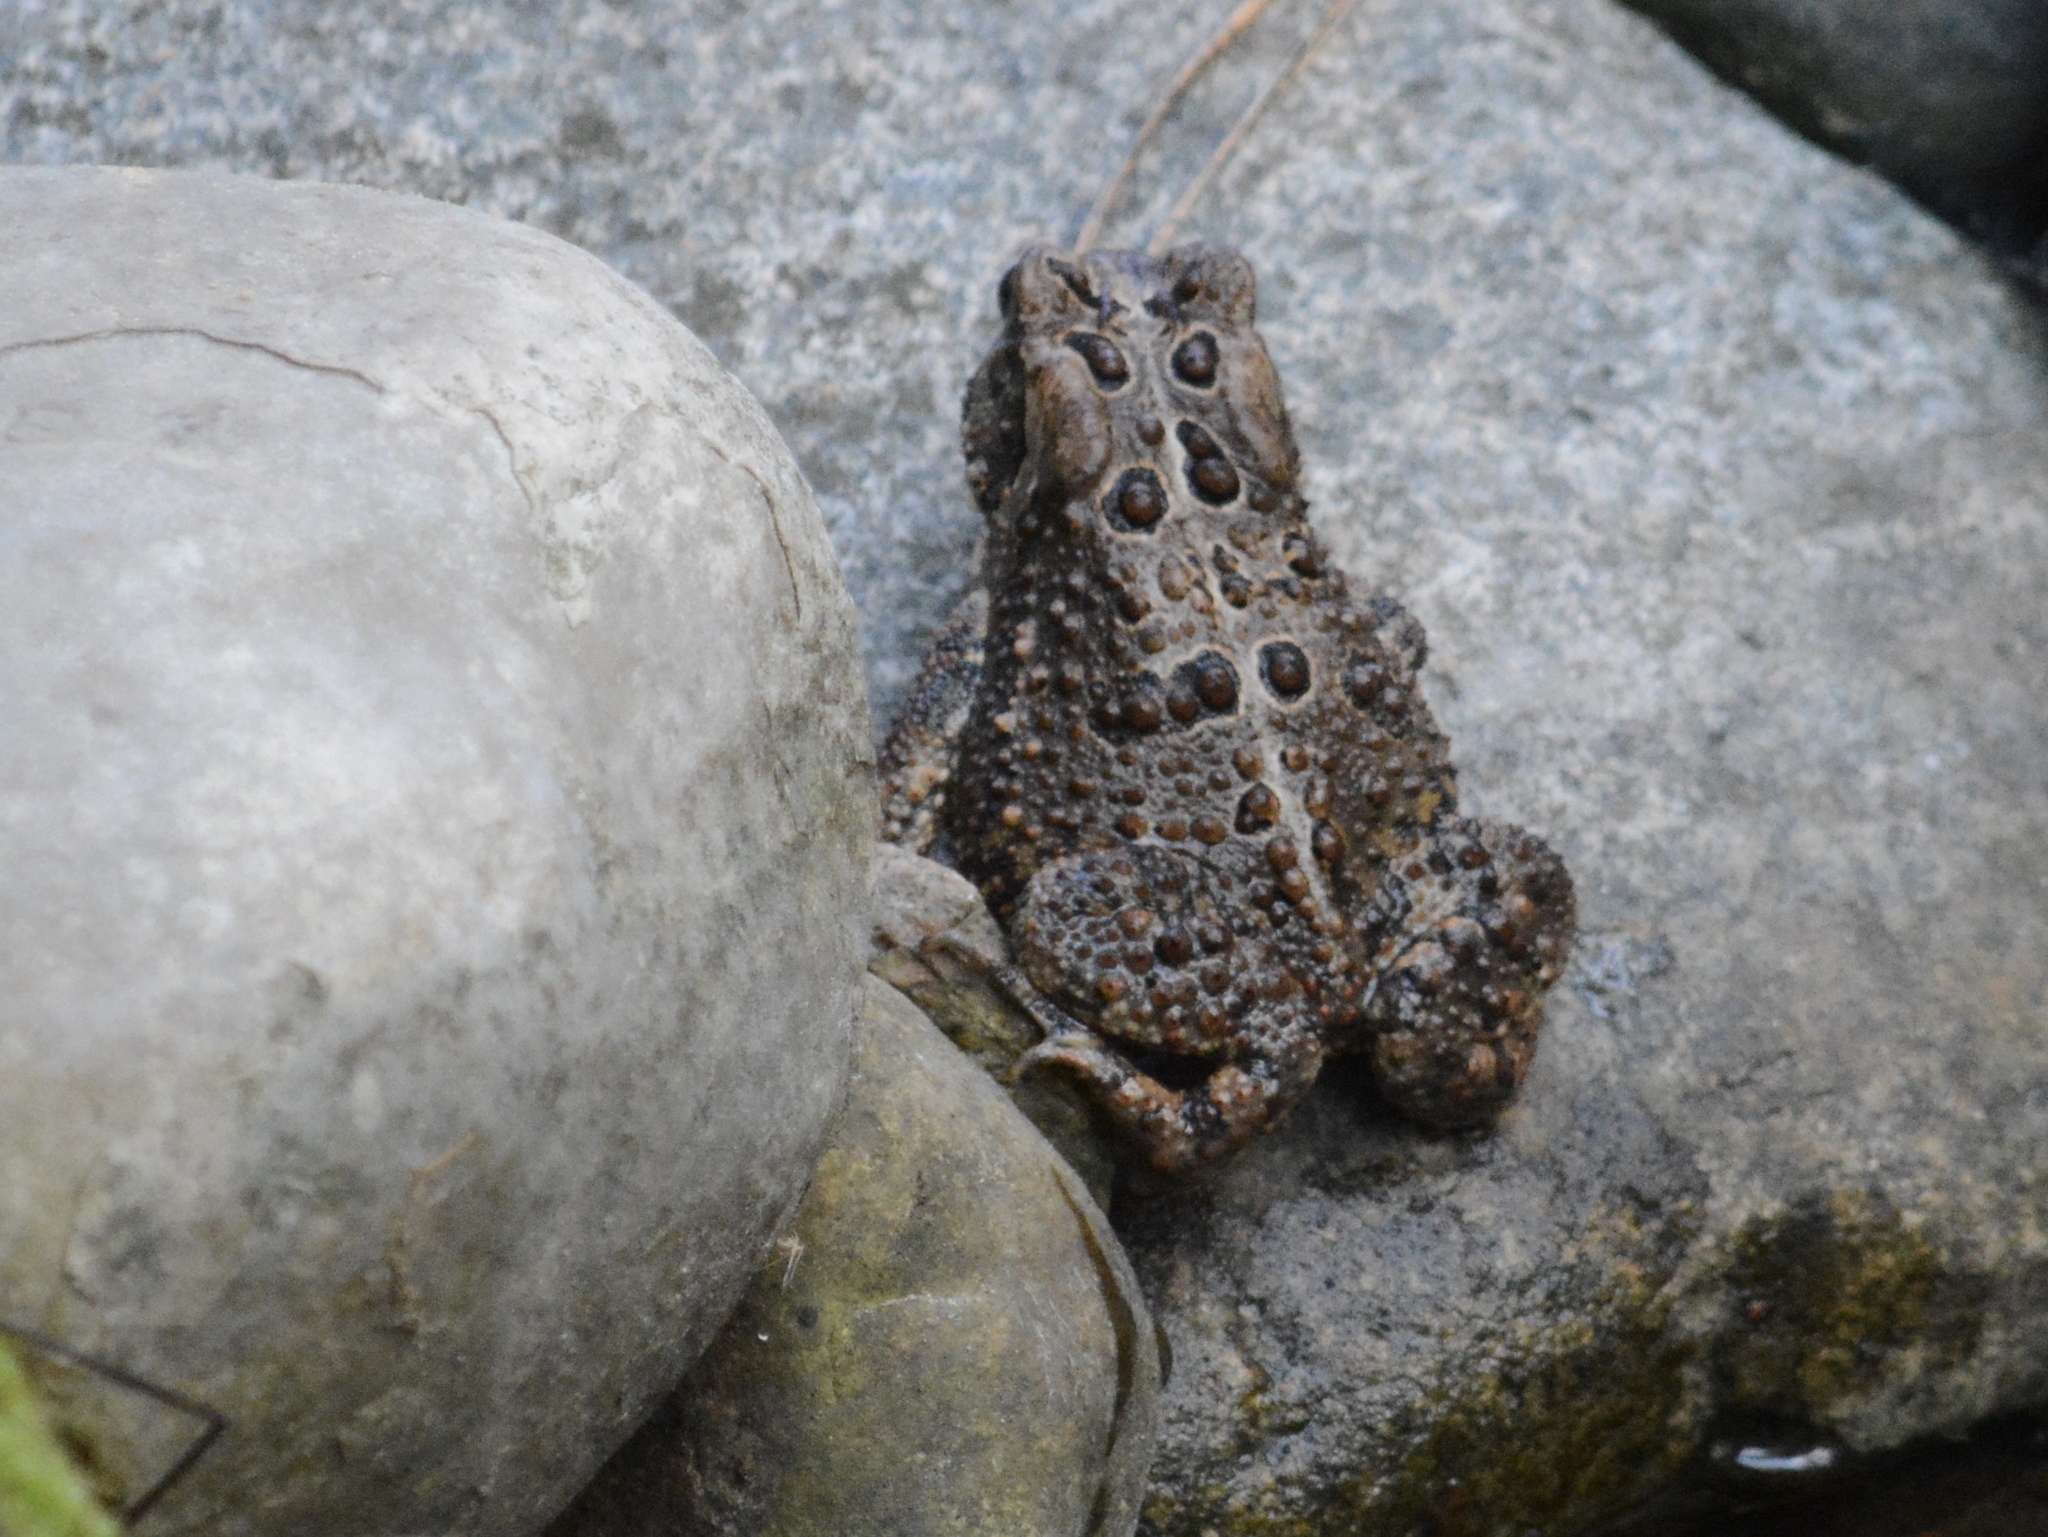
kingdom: Animalia
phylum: Chordata
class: Amphibia
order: Anura
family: Bufonidae
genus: Anaxyrus
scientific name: Anaxyrus americanus
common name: American toad
